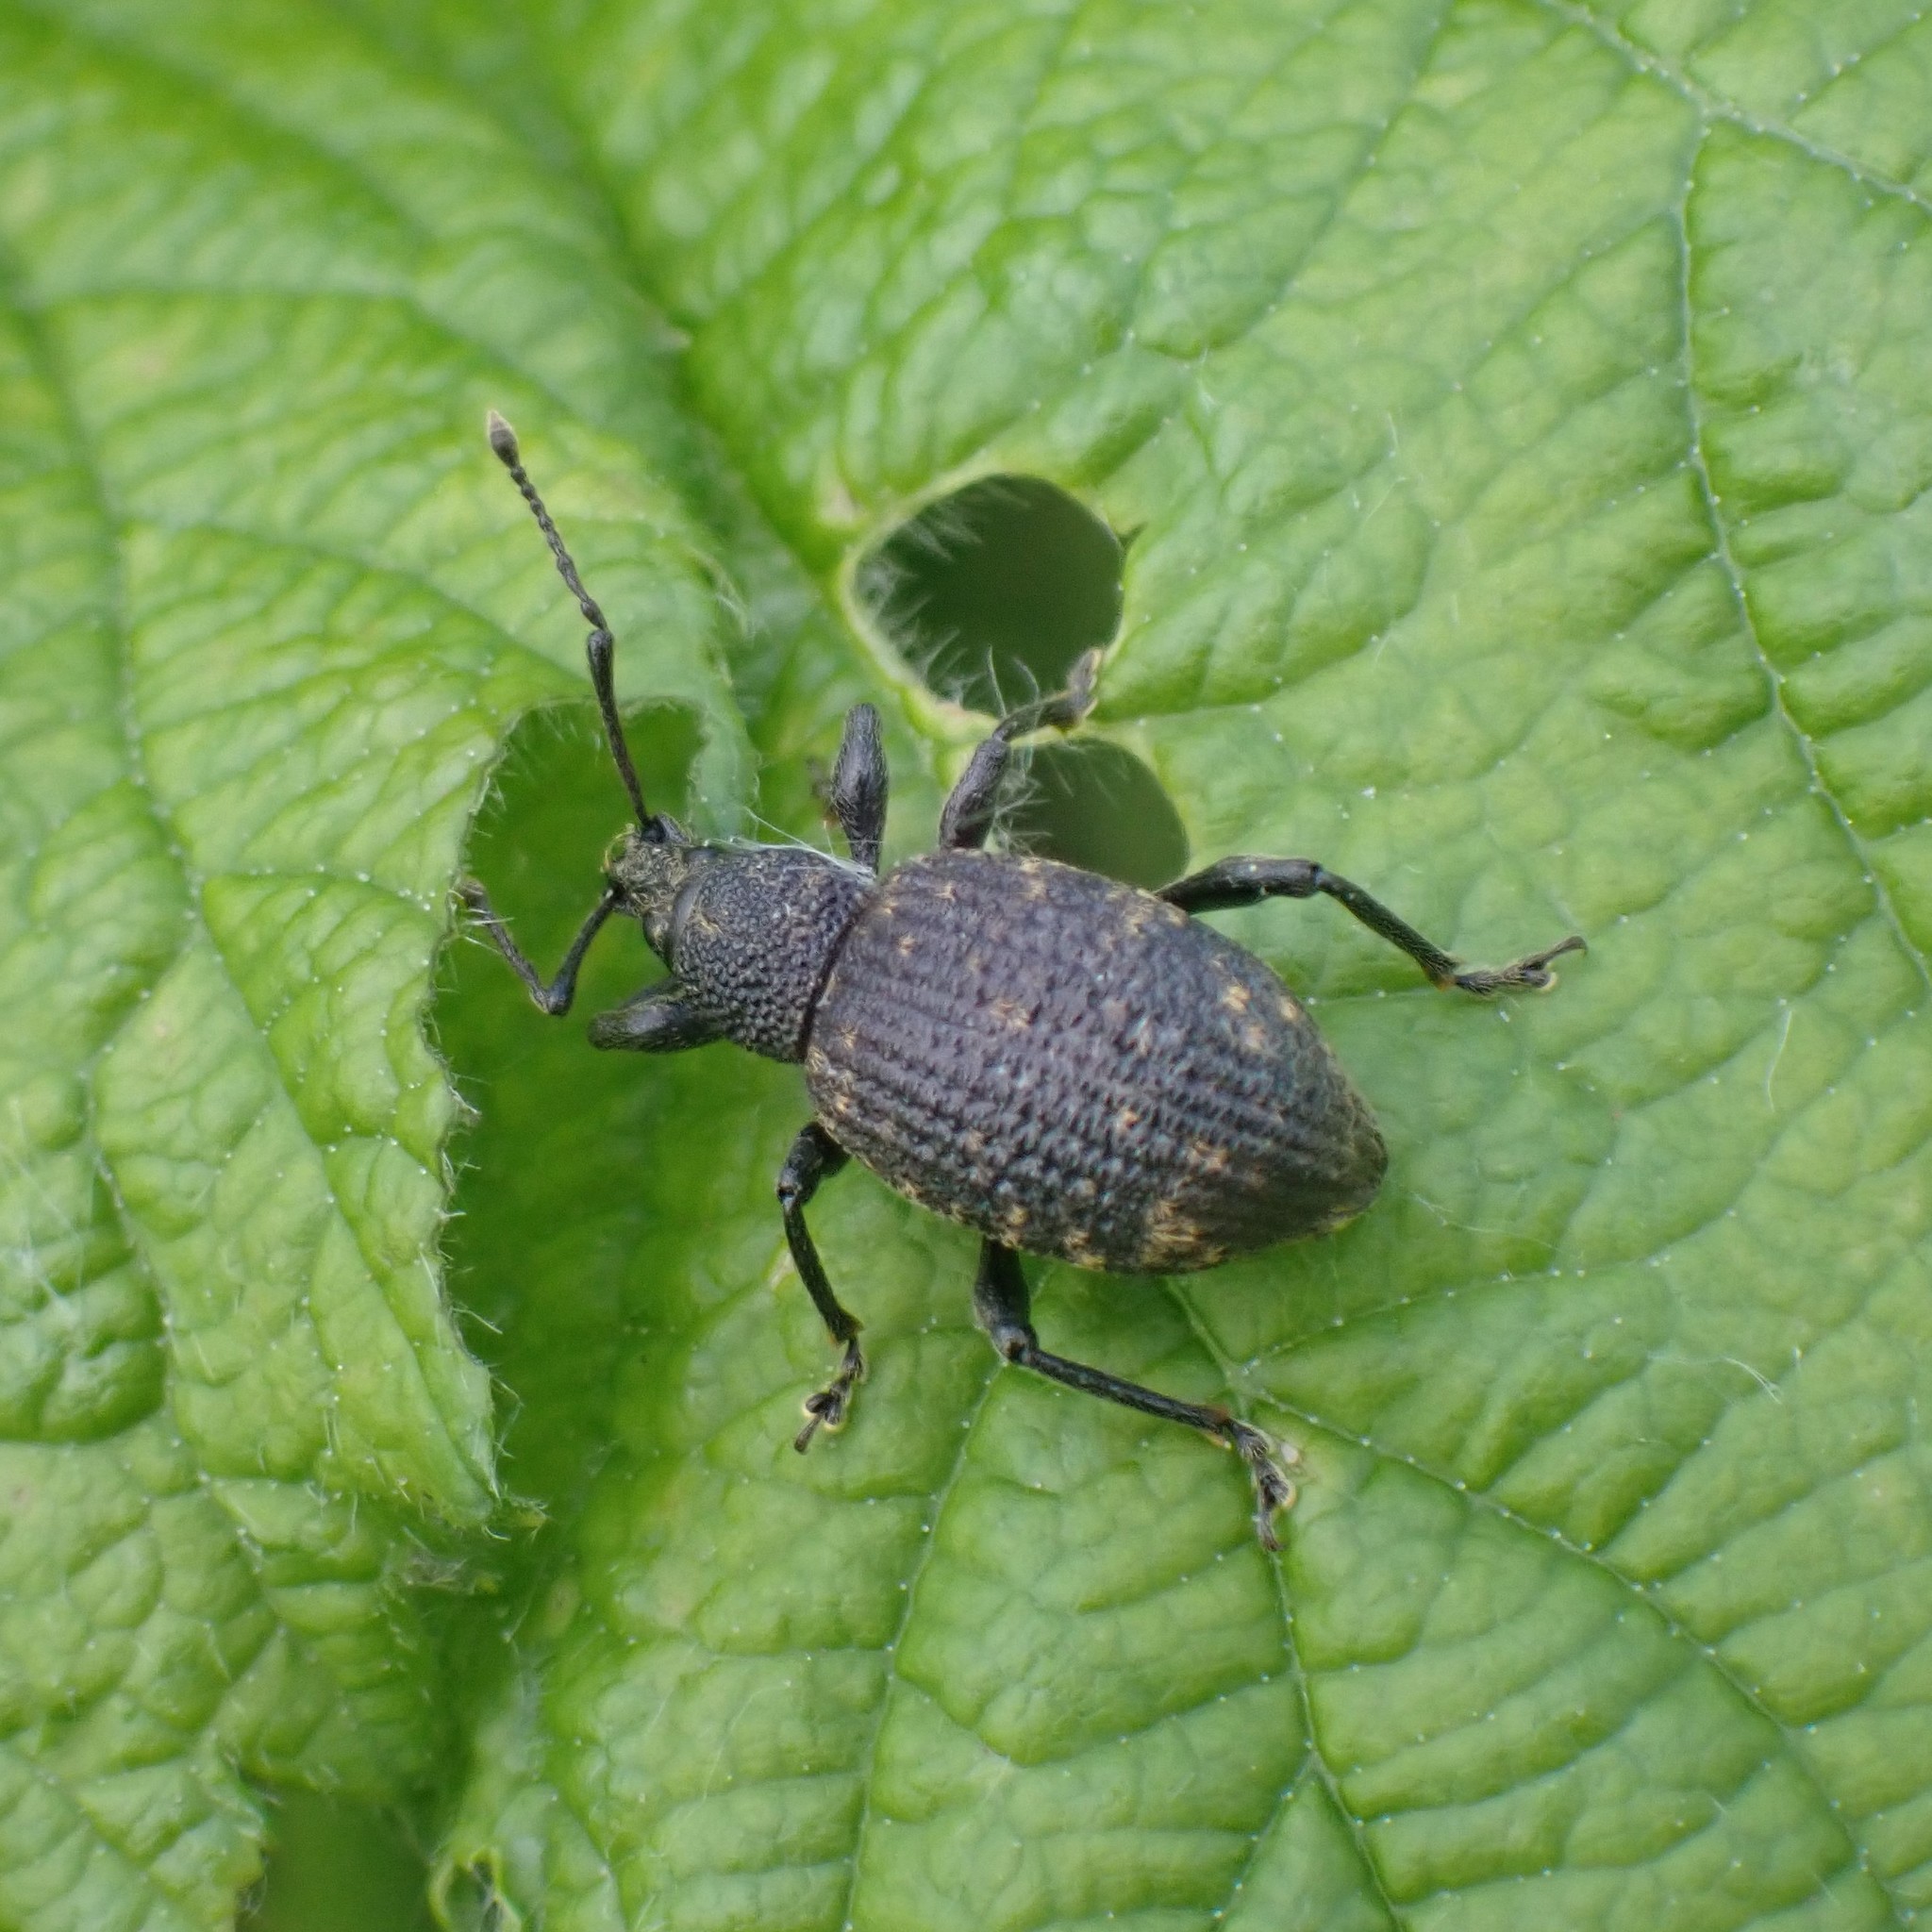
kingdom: Animalia
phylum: Arthropoda
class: Insecta
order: Coleoptera
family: Curculionidae
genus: Otiorhynchus
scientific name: Otiorhynchus sulcatus
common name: Black vine weevil
